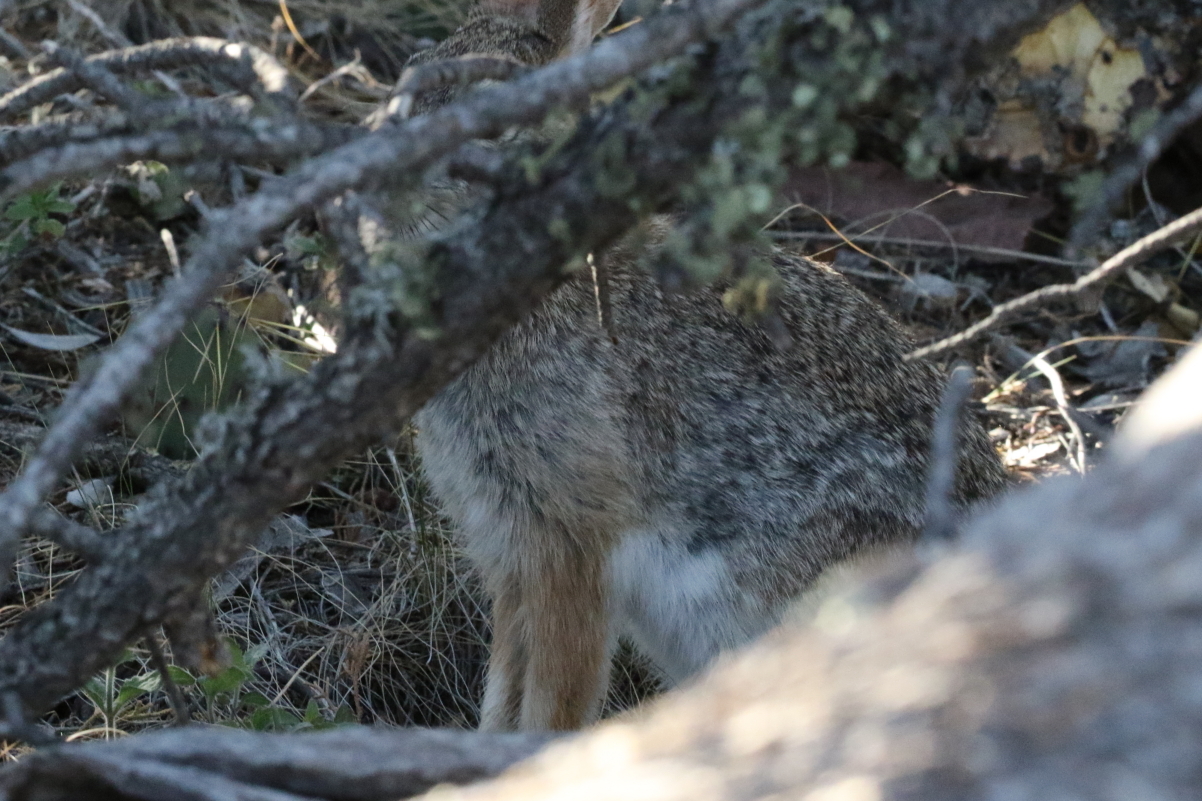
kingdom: Animalia
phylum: Chordata
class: Mammalia
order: Lagomorpha
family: Leporidae
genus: Sylvilagus
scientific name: Sylvilagus audubonii
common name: Desert cottontail
